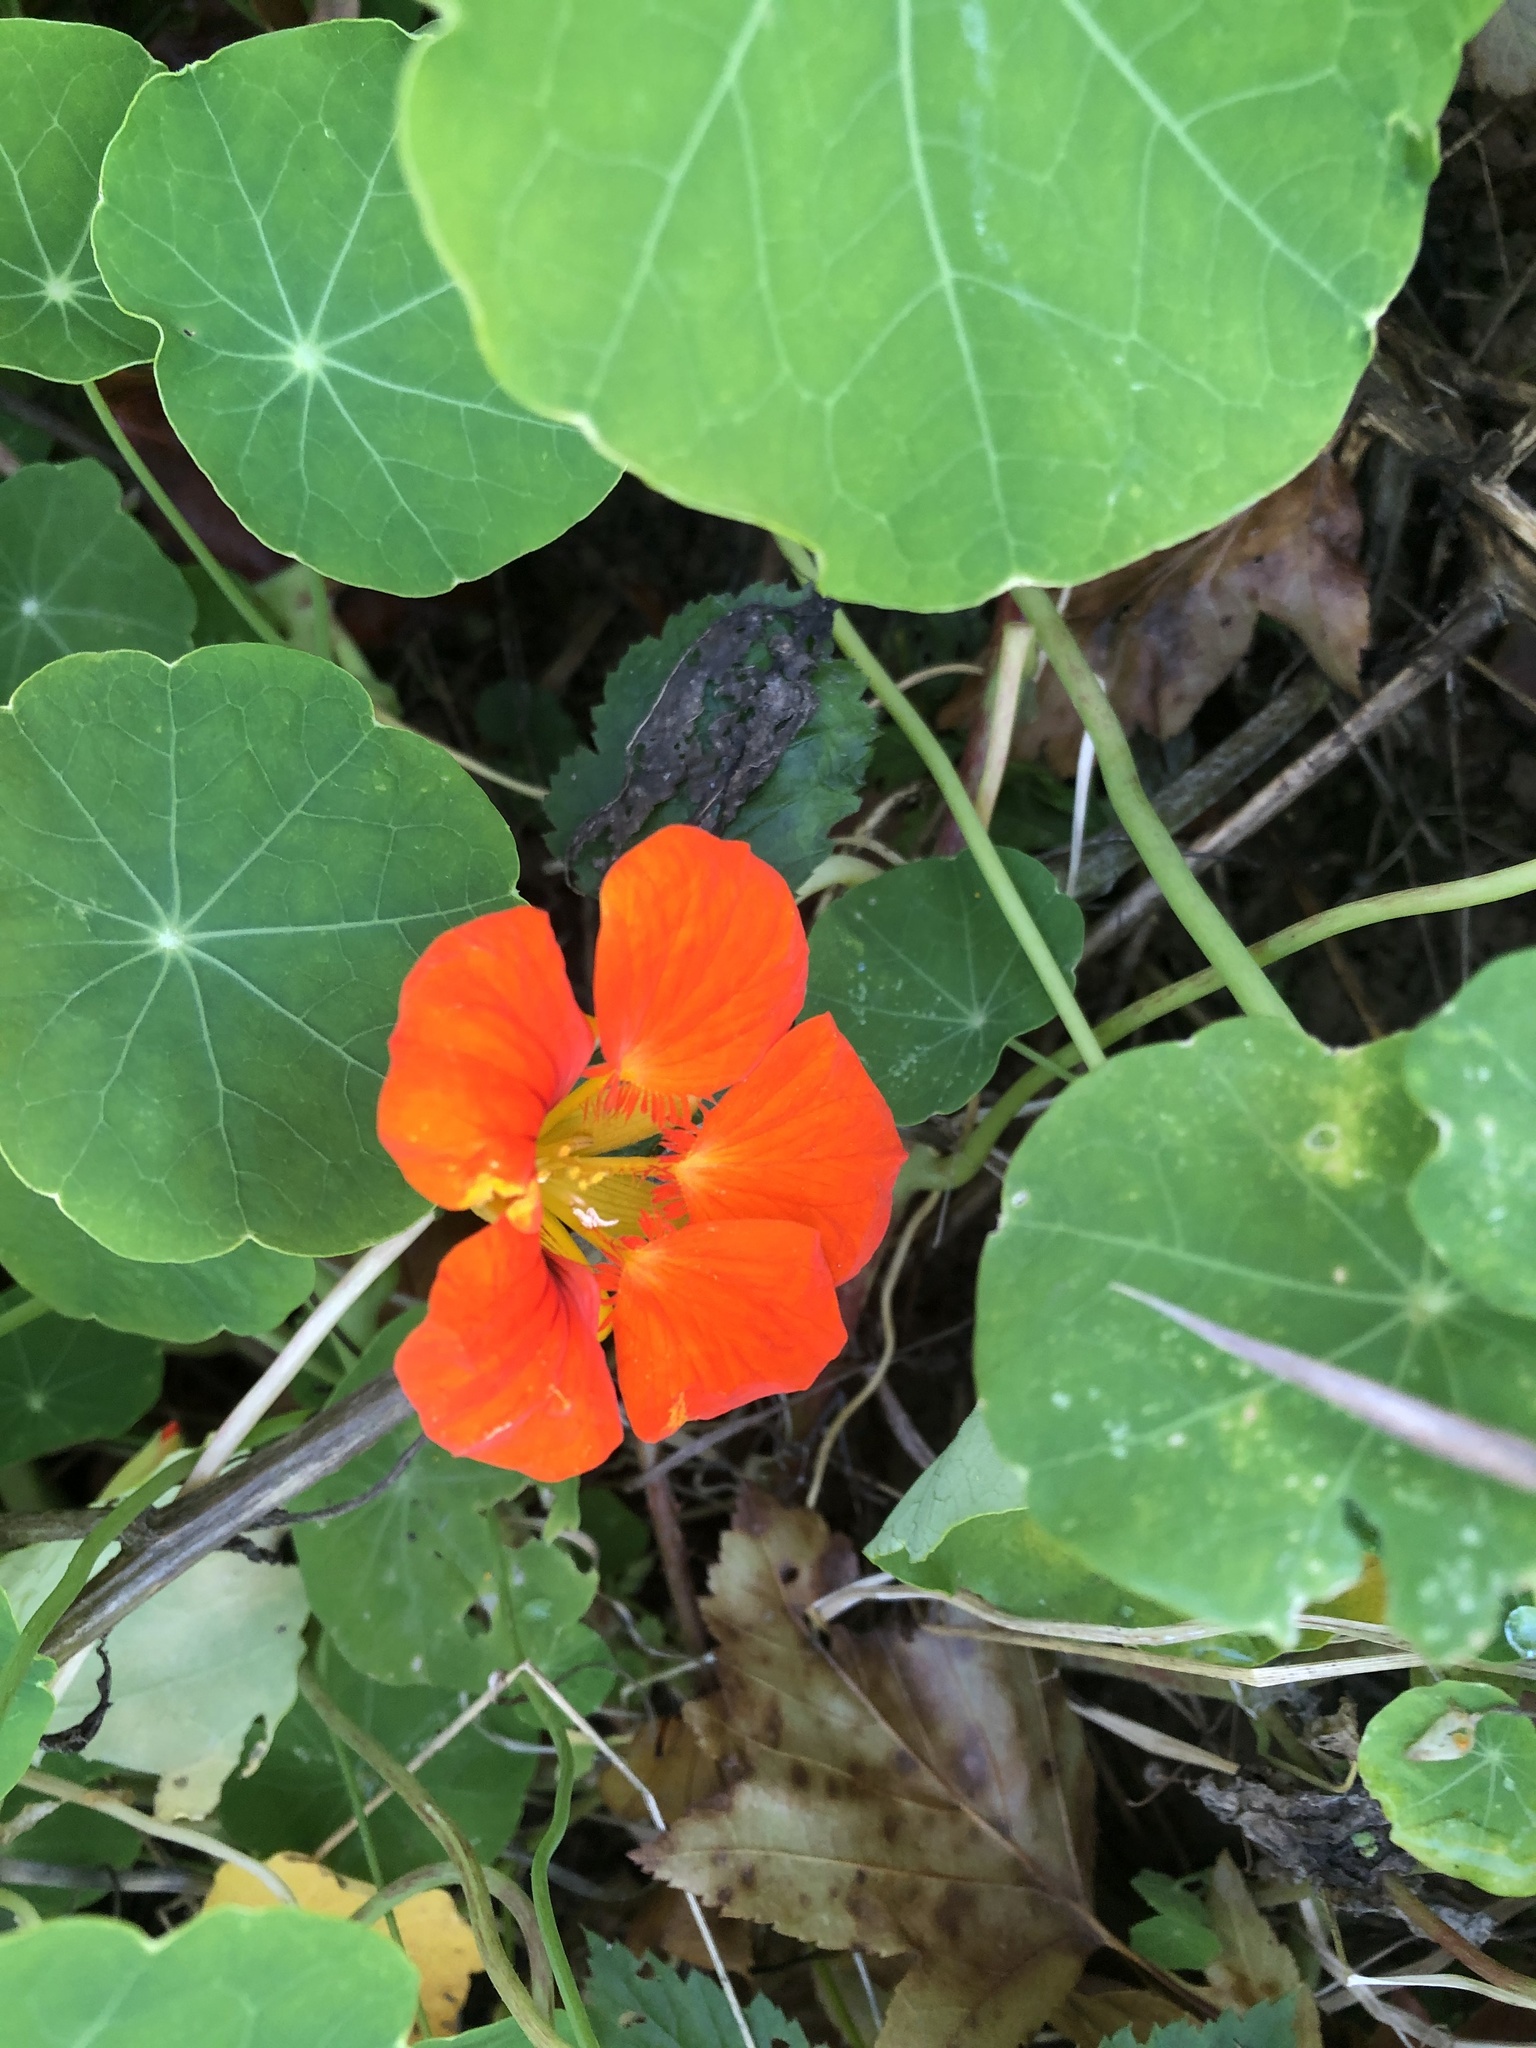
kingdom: Plantae
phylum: Tracheophyta
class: Magnoliopsida
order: Brassicales
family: Tropaeolaceae
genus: Tropaeolum
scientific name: Tropaeolum majus
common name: Nasturtium
